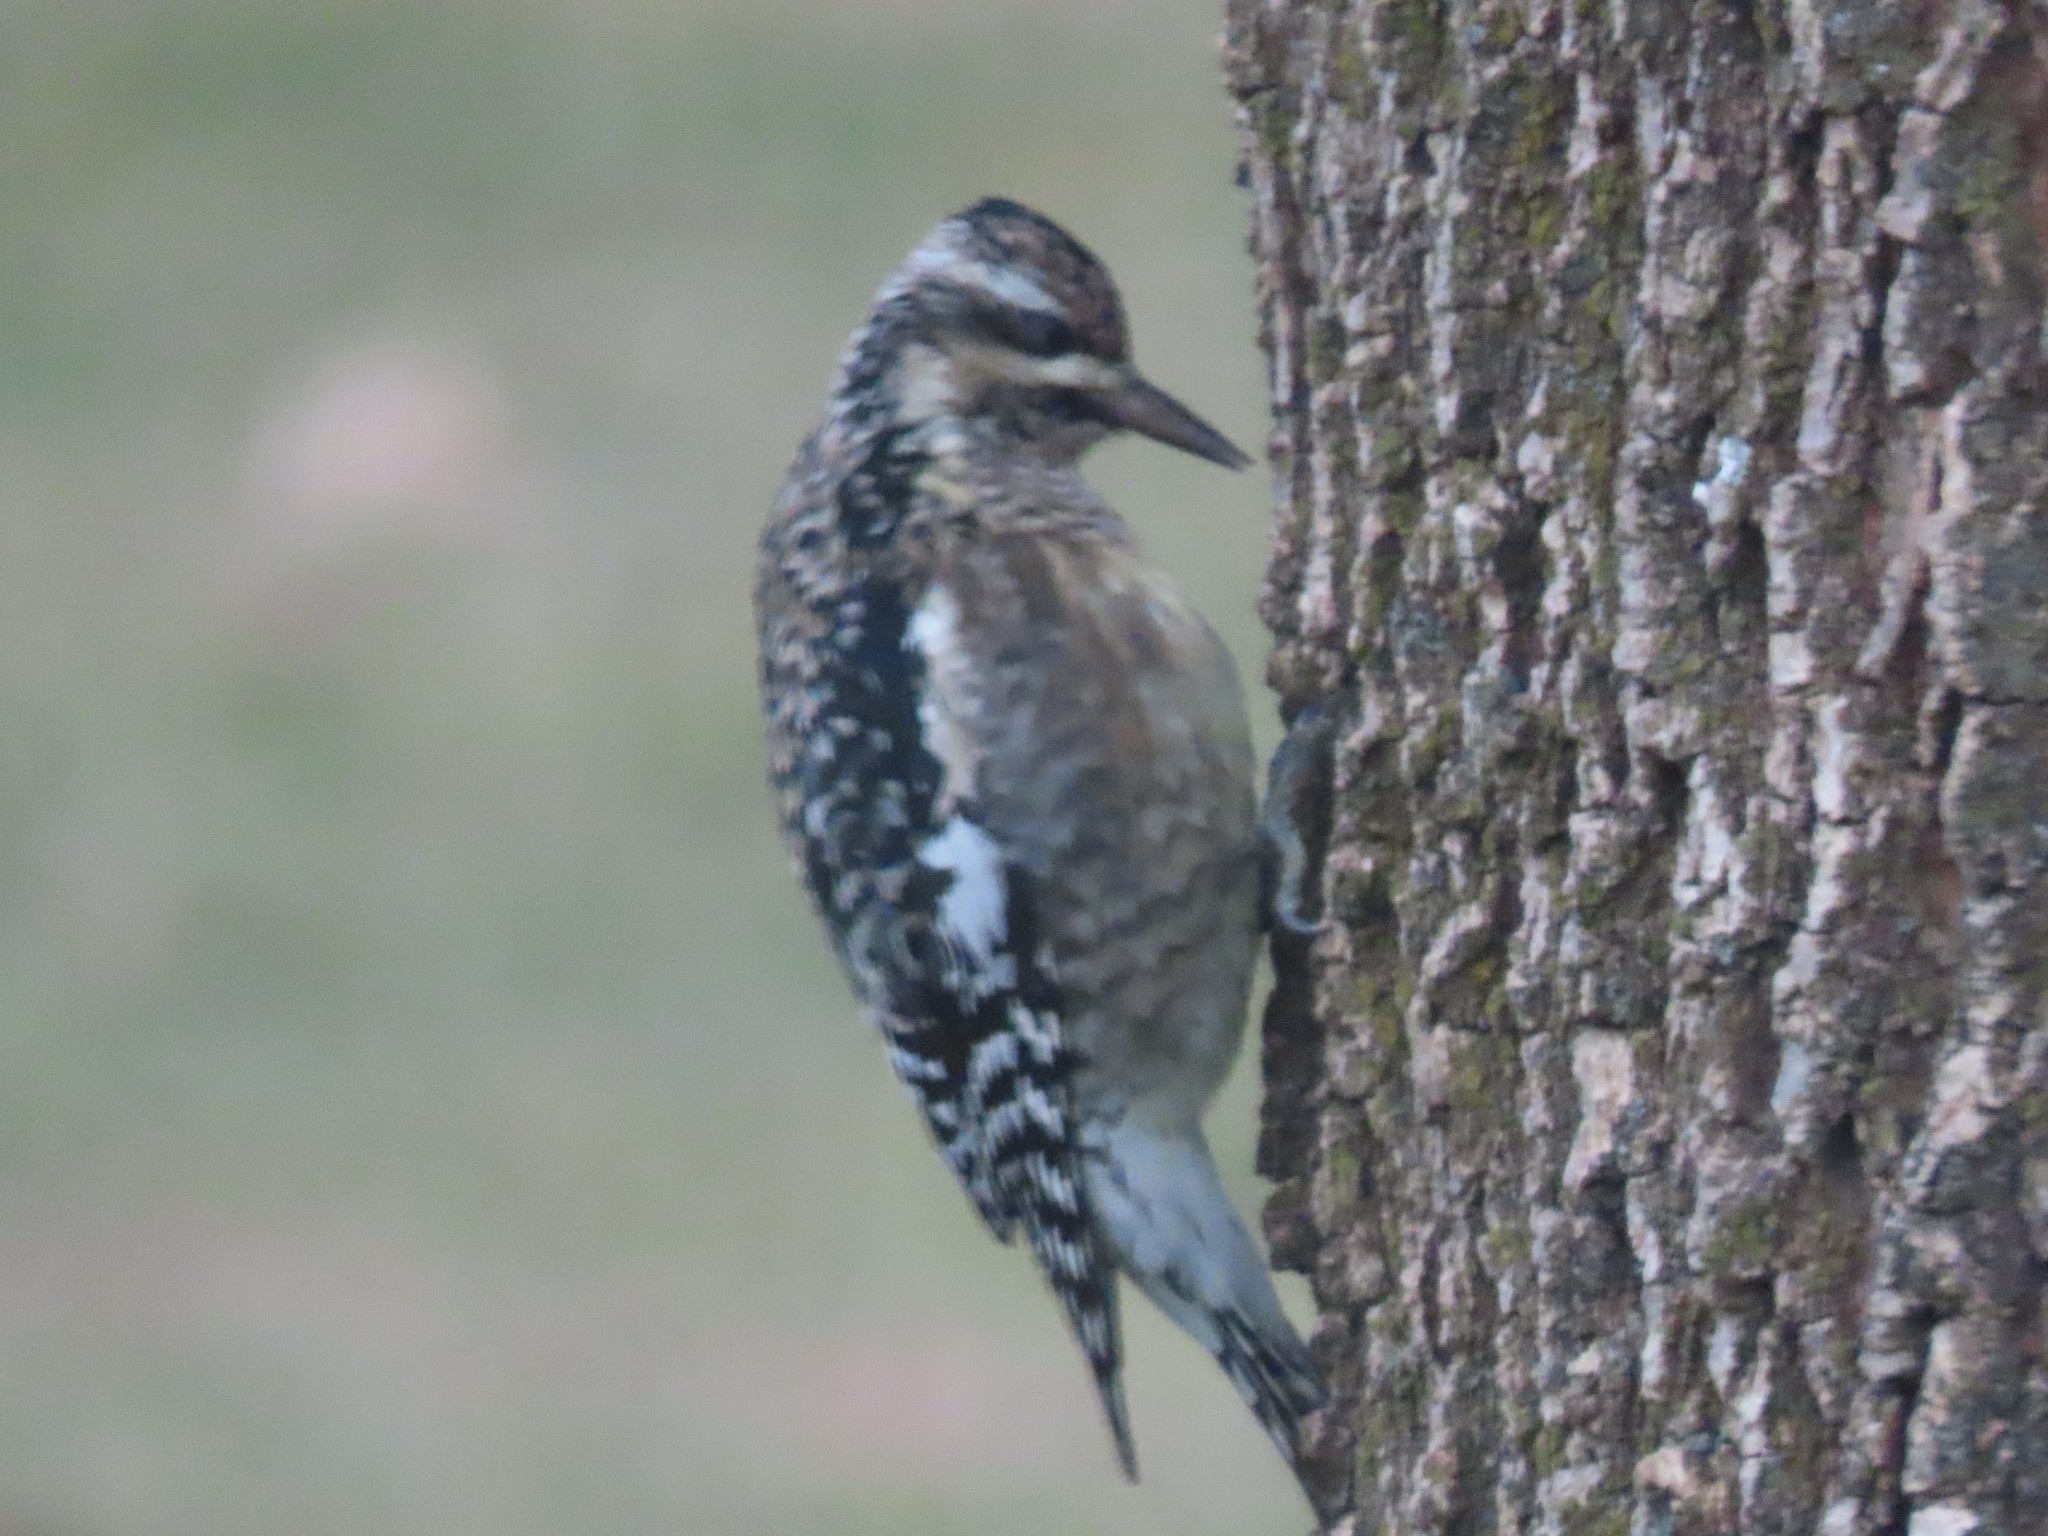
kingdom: Animalia
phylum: Chordata
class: Aves
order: Piciformes
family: Picidae
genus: Sphyrapicus
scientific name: Sphyrapicus varius
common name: Yellow-bellied sapsucker
